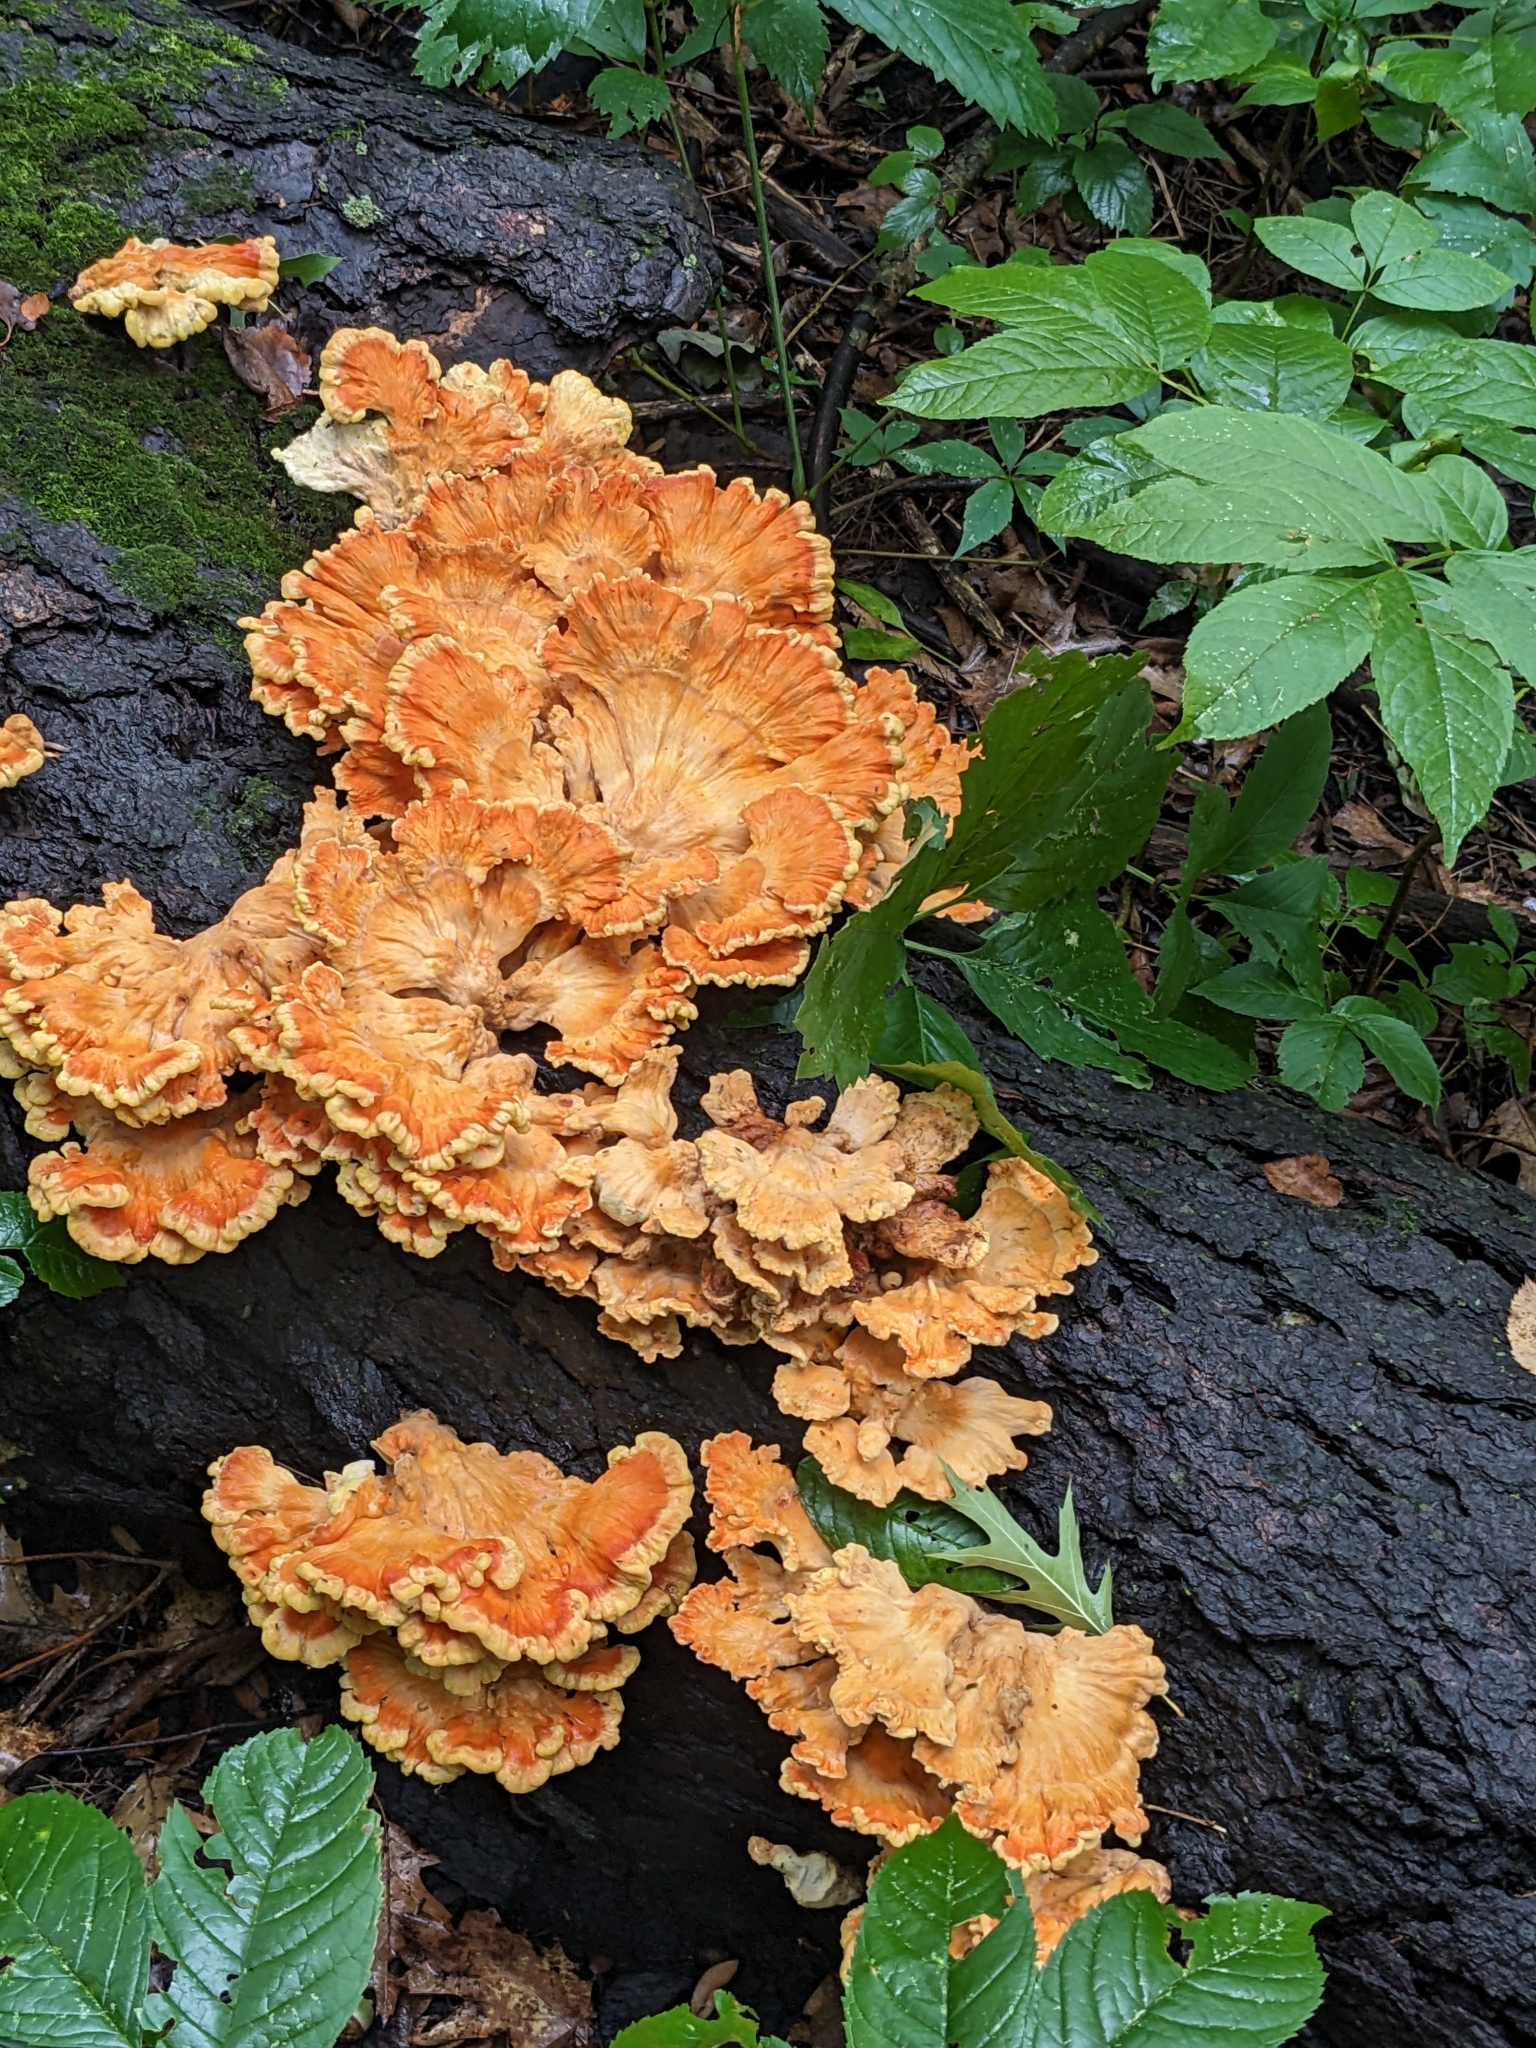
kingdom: Fungi
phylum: Basidiomycota
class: Agaricomycetes
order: Polyporales
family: Laetiporaceae
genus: Laetiporus
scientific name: Laetiporus sulphureus
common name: Chicken of the woods
